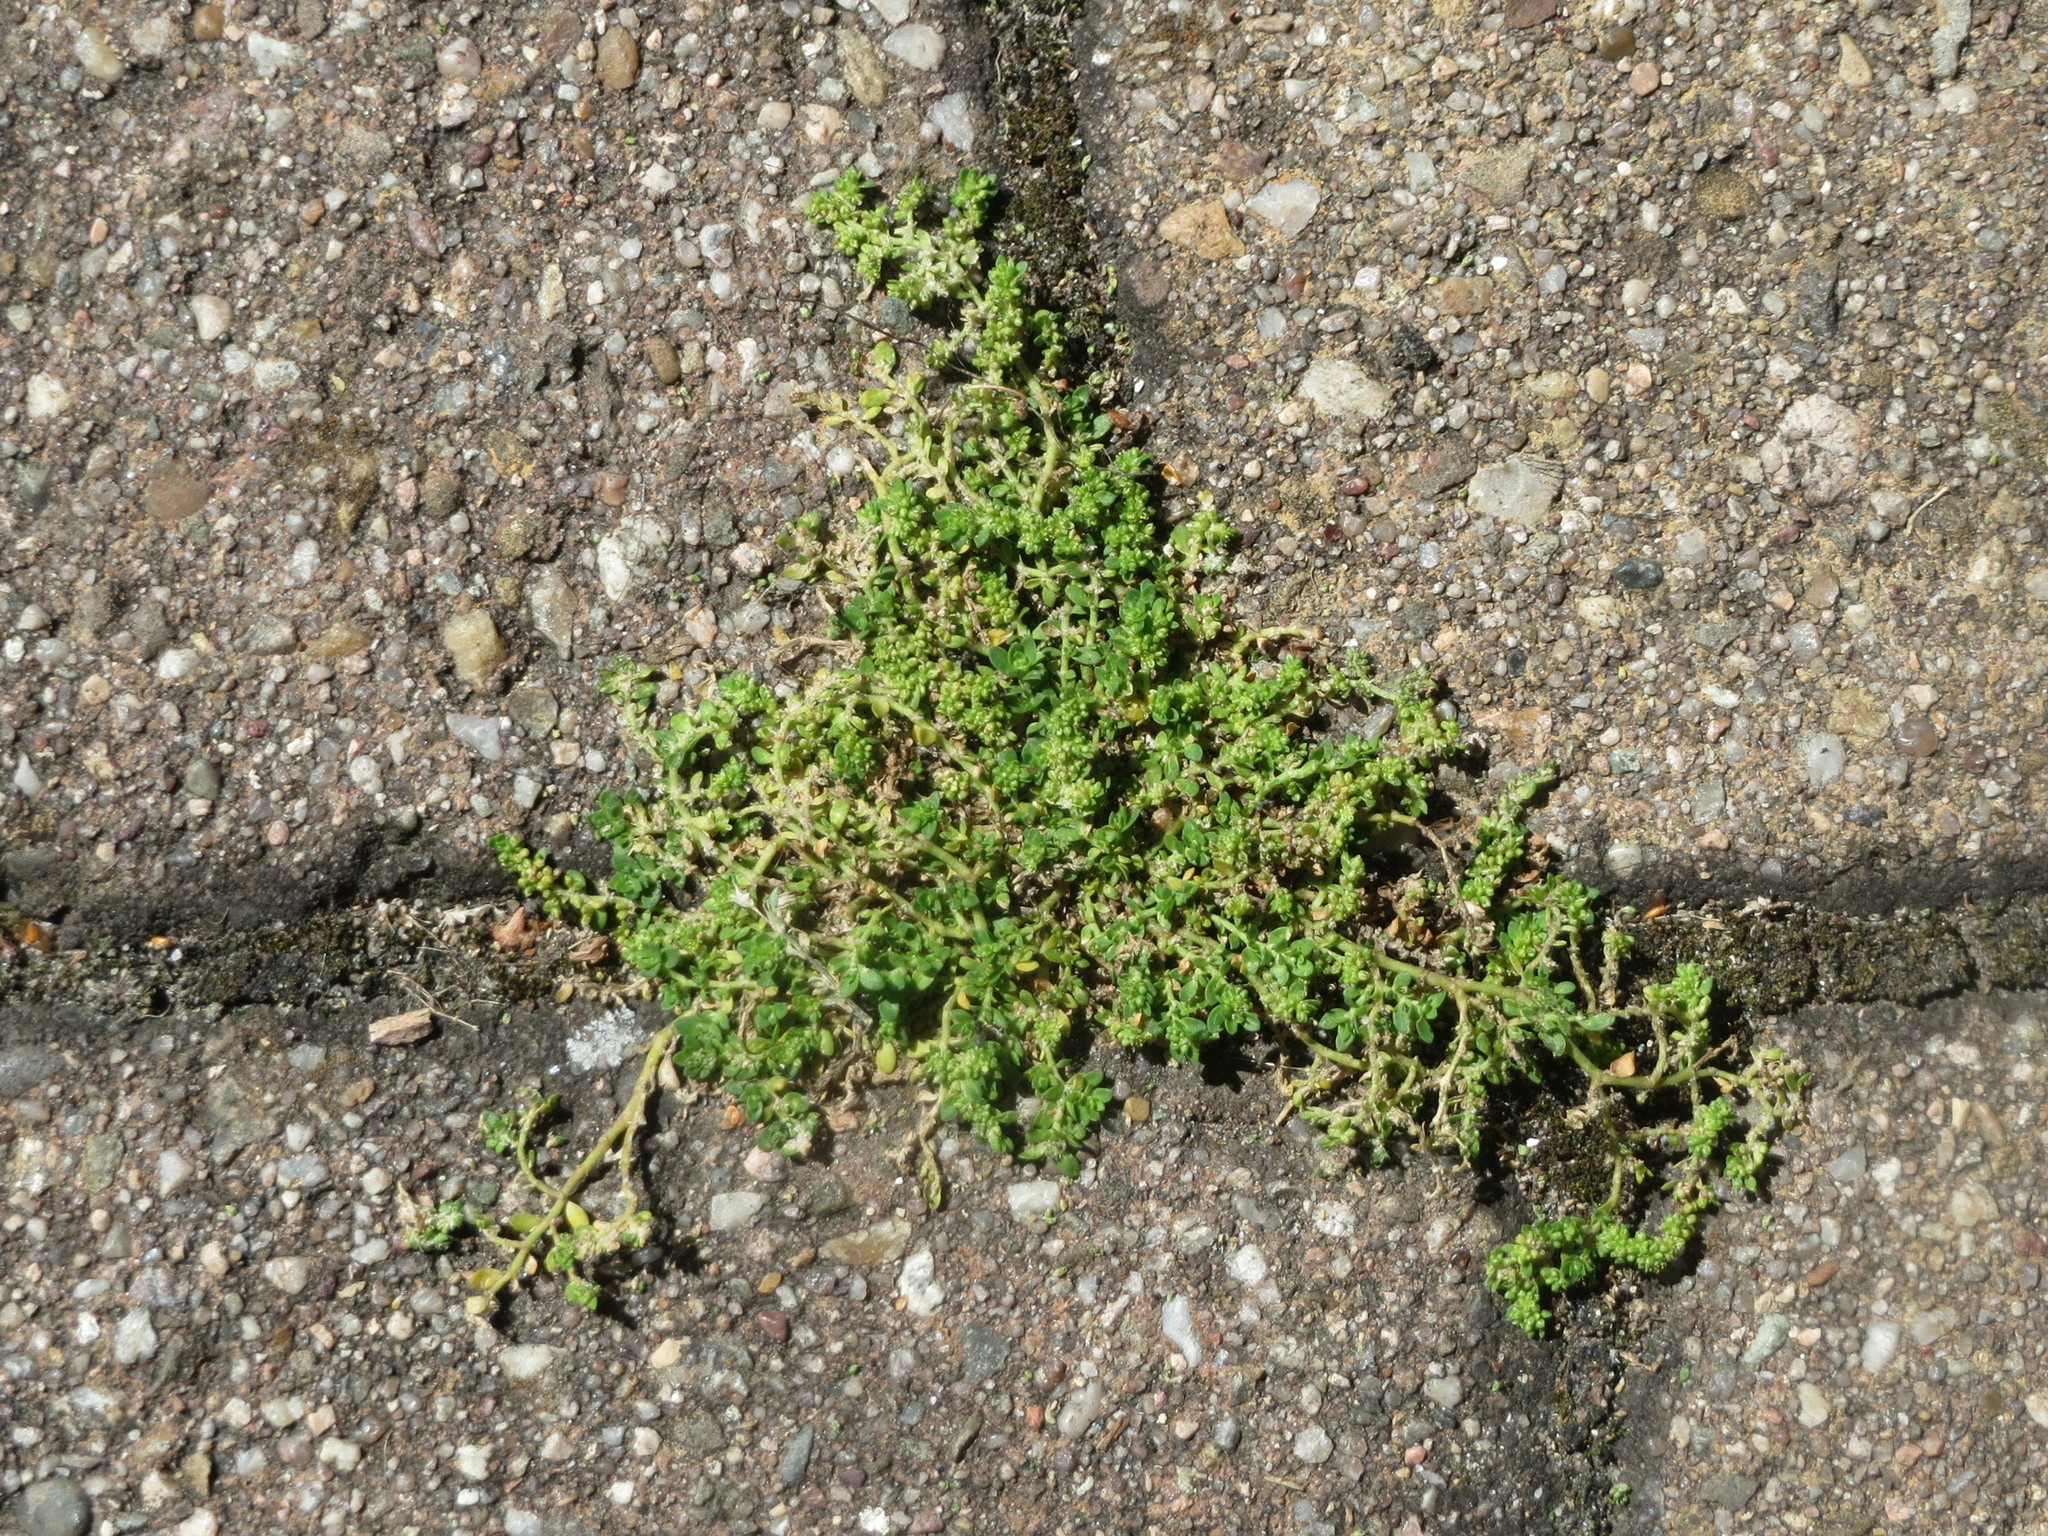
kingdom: Plantae
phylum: Tracheophyta
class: Magnoliopsida
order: Caryophyllales
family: Caryophyllaceae
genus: Herniaria
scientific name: Herniaria glabra
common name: Smooth rupturewort
